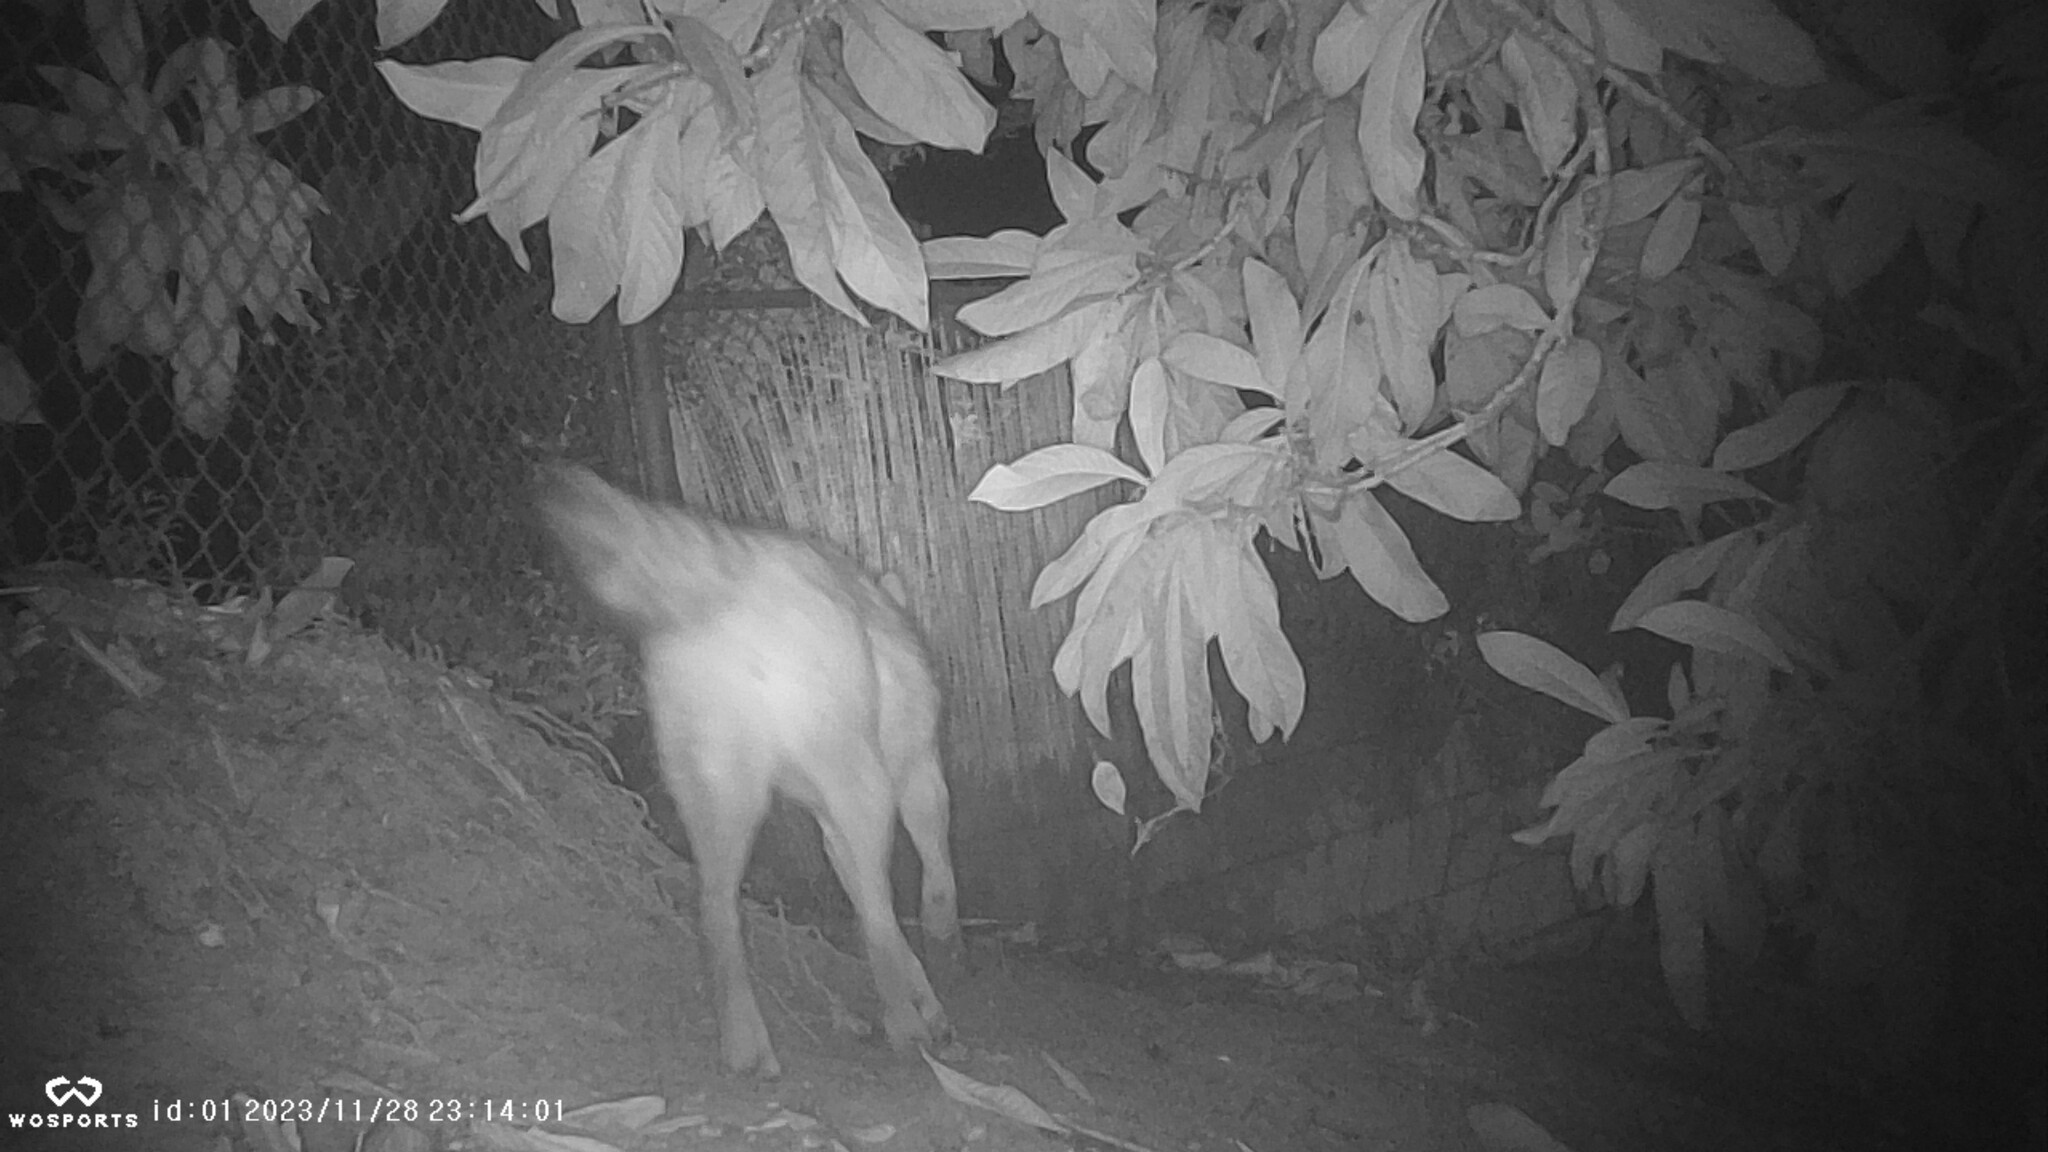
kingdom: Animalia
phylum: Chordata
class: Mammalia
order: Carnivora
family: Canidae
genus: Canis
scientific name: Canis latrans
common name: Coyote
